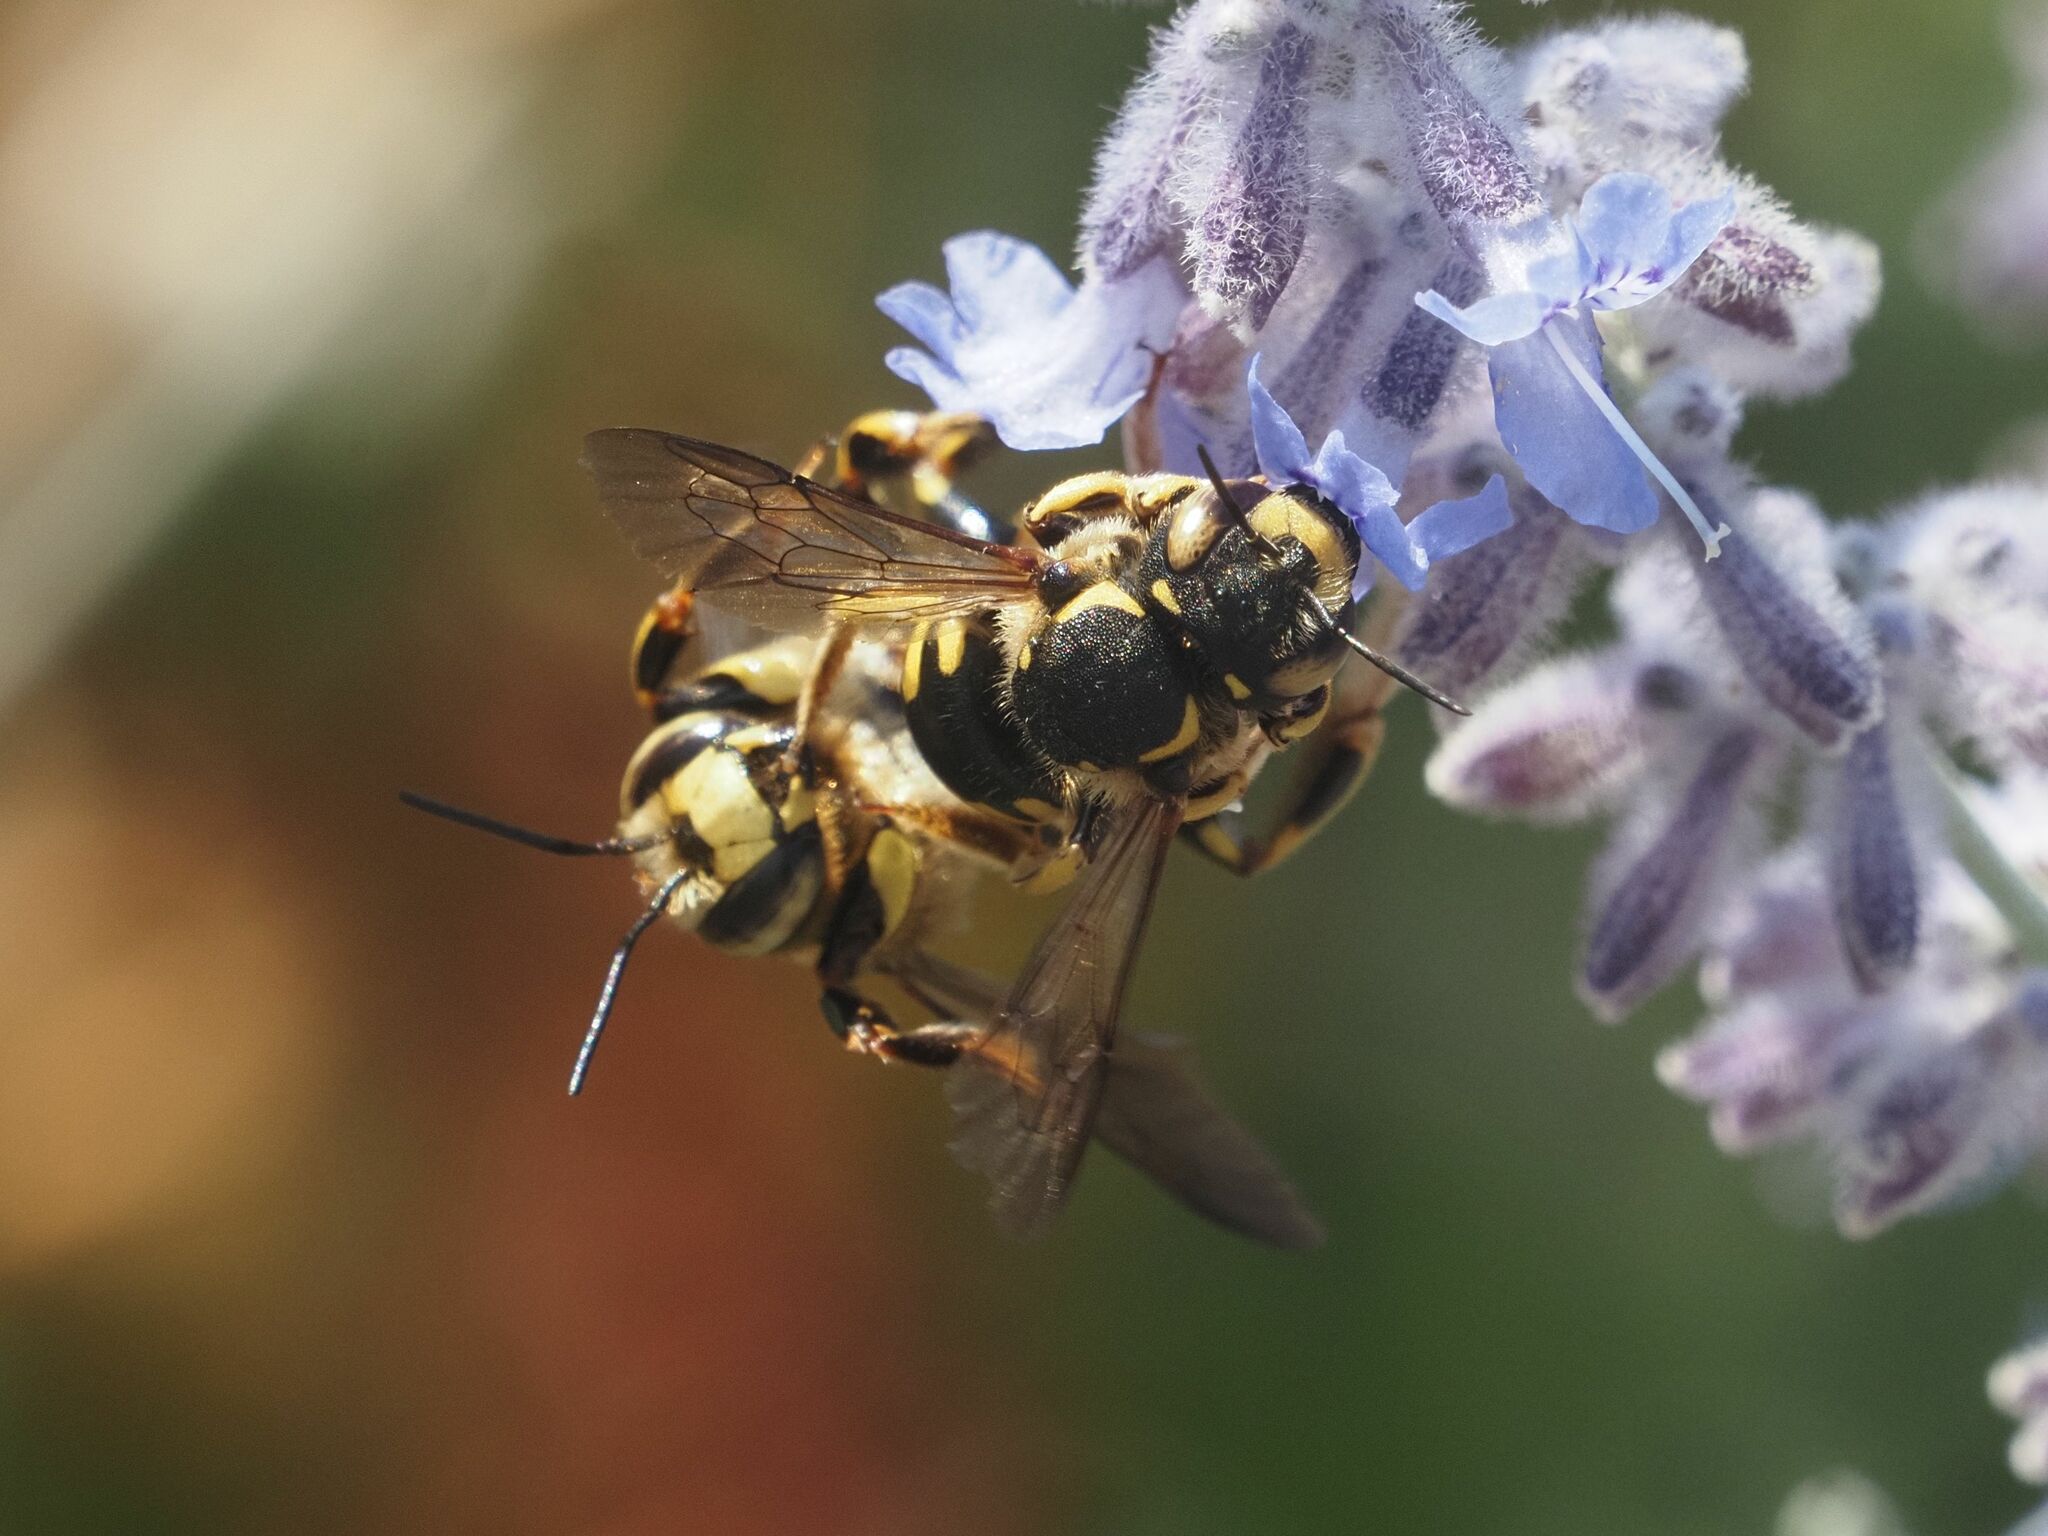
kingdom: Animalia
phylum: Arthropoda
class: Insecta
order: Hymenoptera
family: Megachilidae
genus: Anthidium
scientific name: Anthidium florentinum
